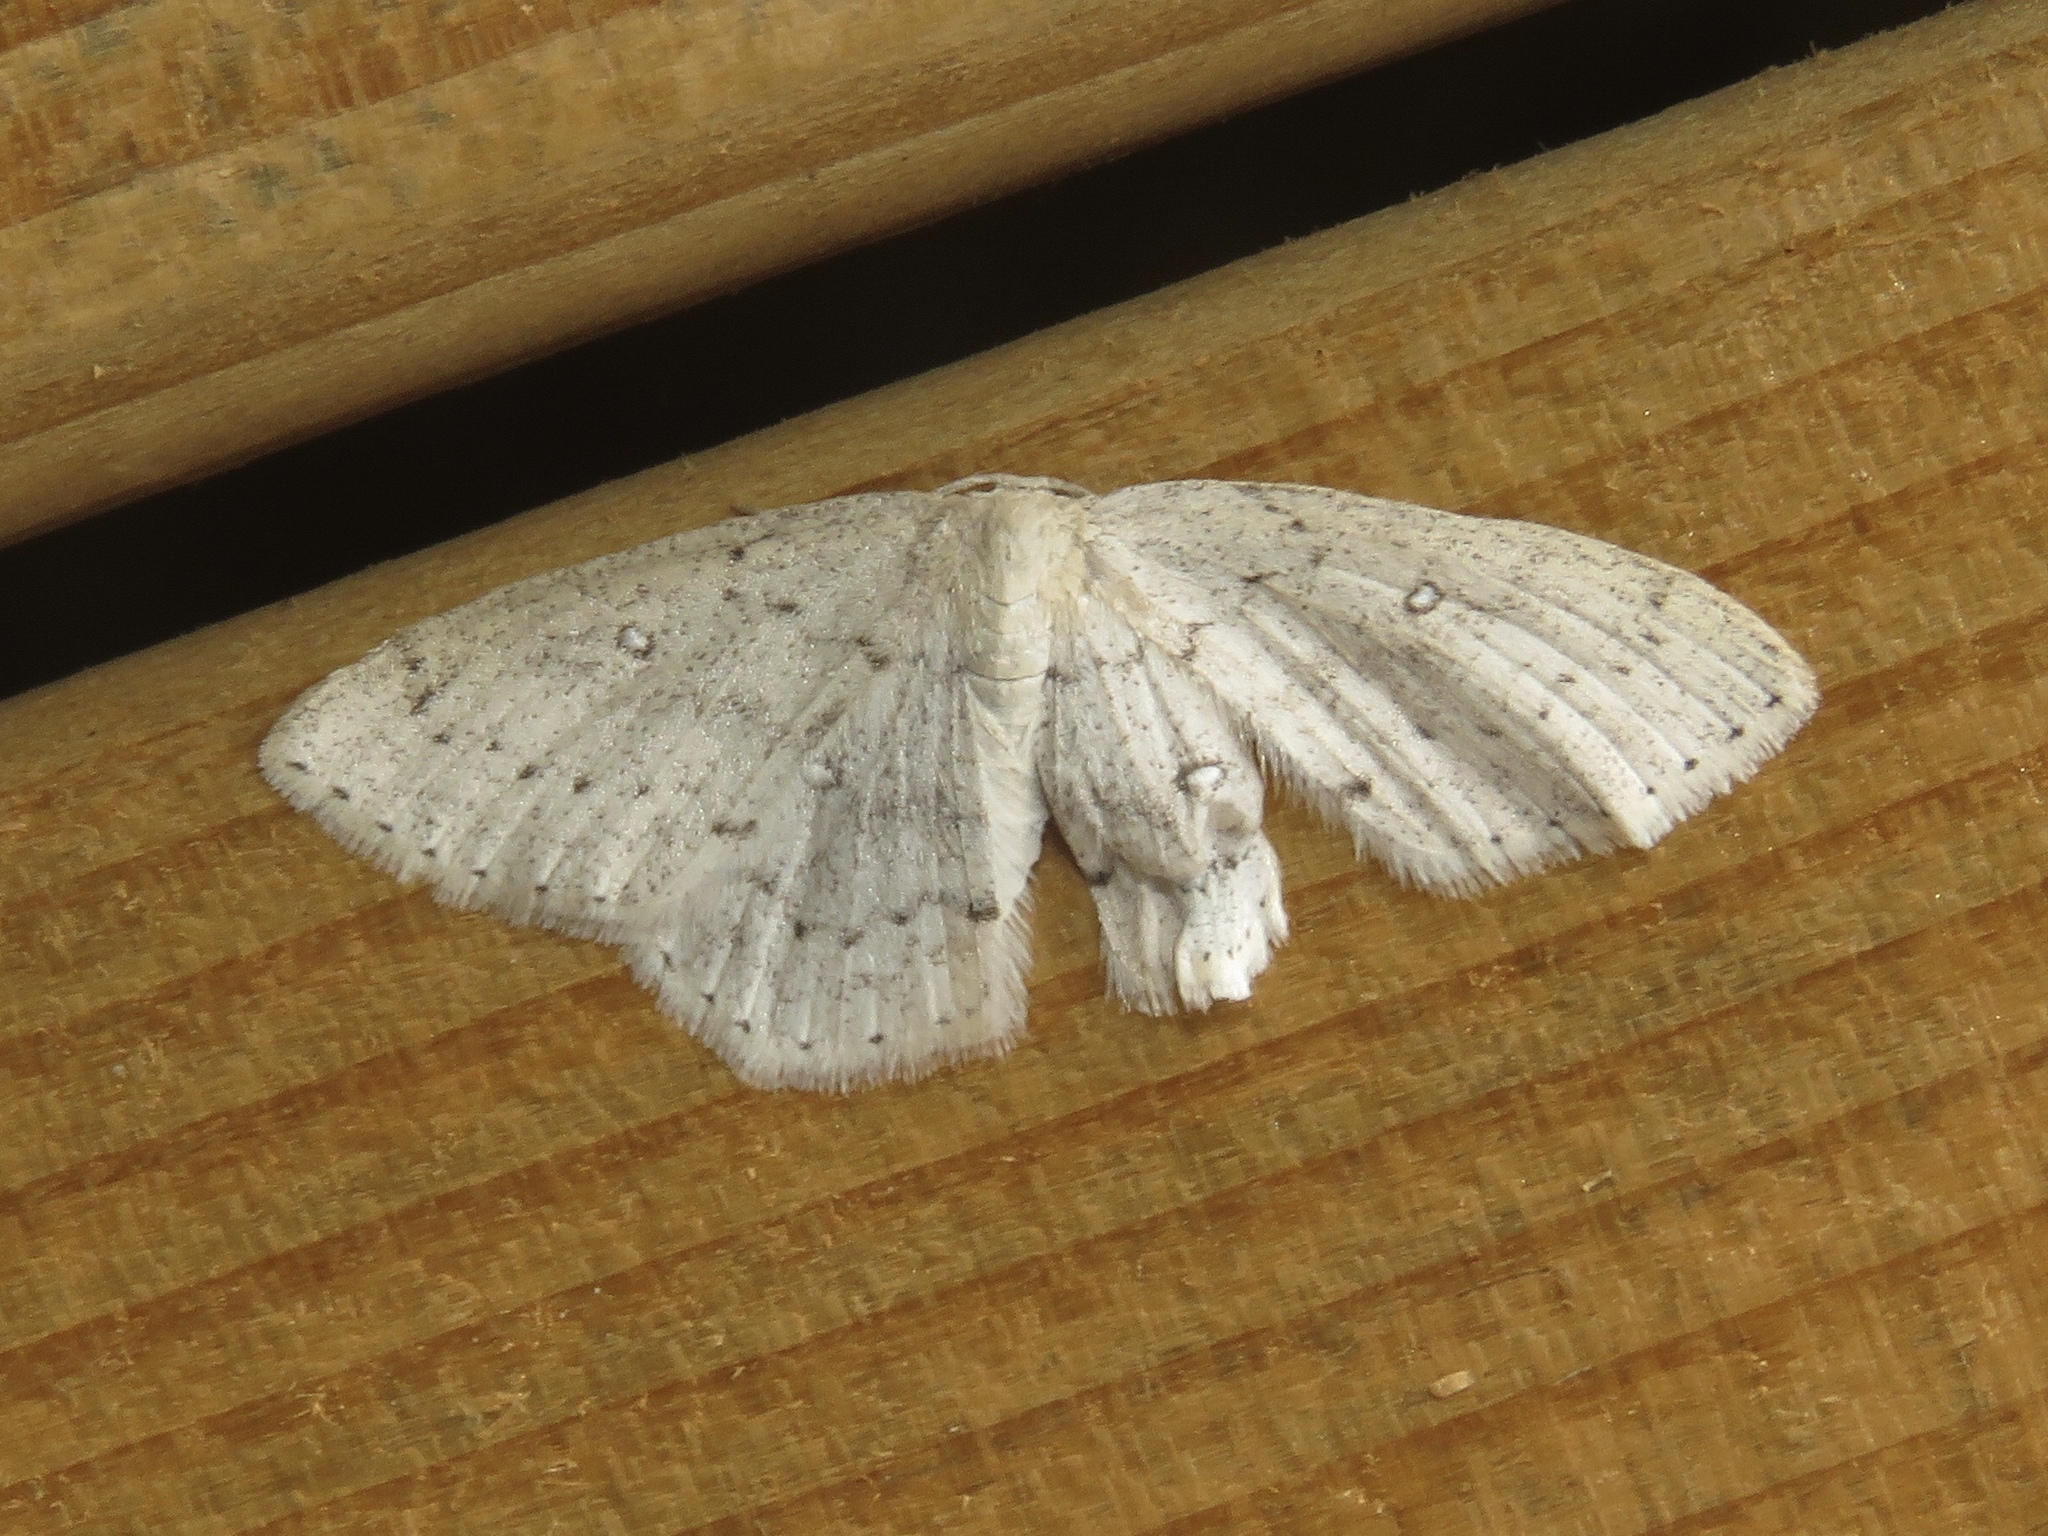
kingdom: Animalia
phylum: Arthropoda
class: Insecta
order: Lepidoptera
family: Geometridae
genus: Cyclophora
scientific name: Cyclophora pendulinaria
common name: Sweet fern geometer
